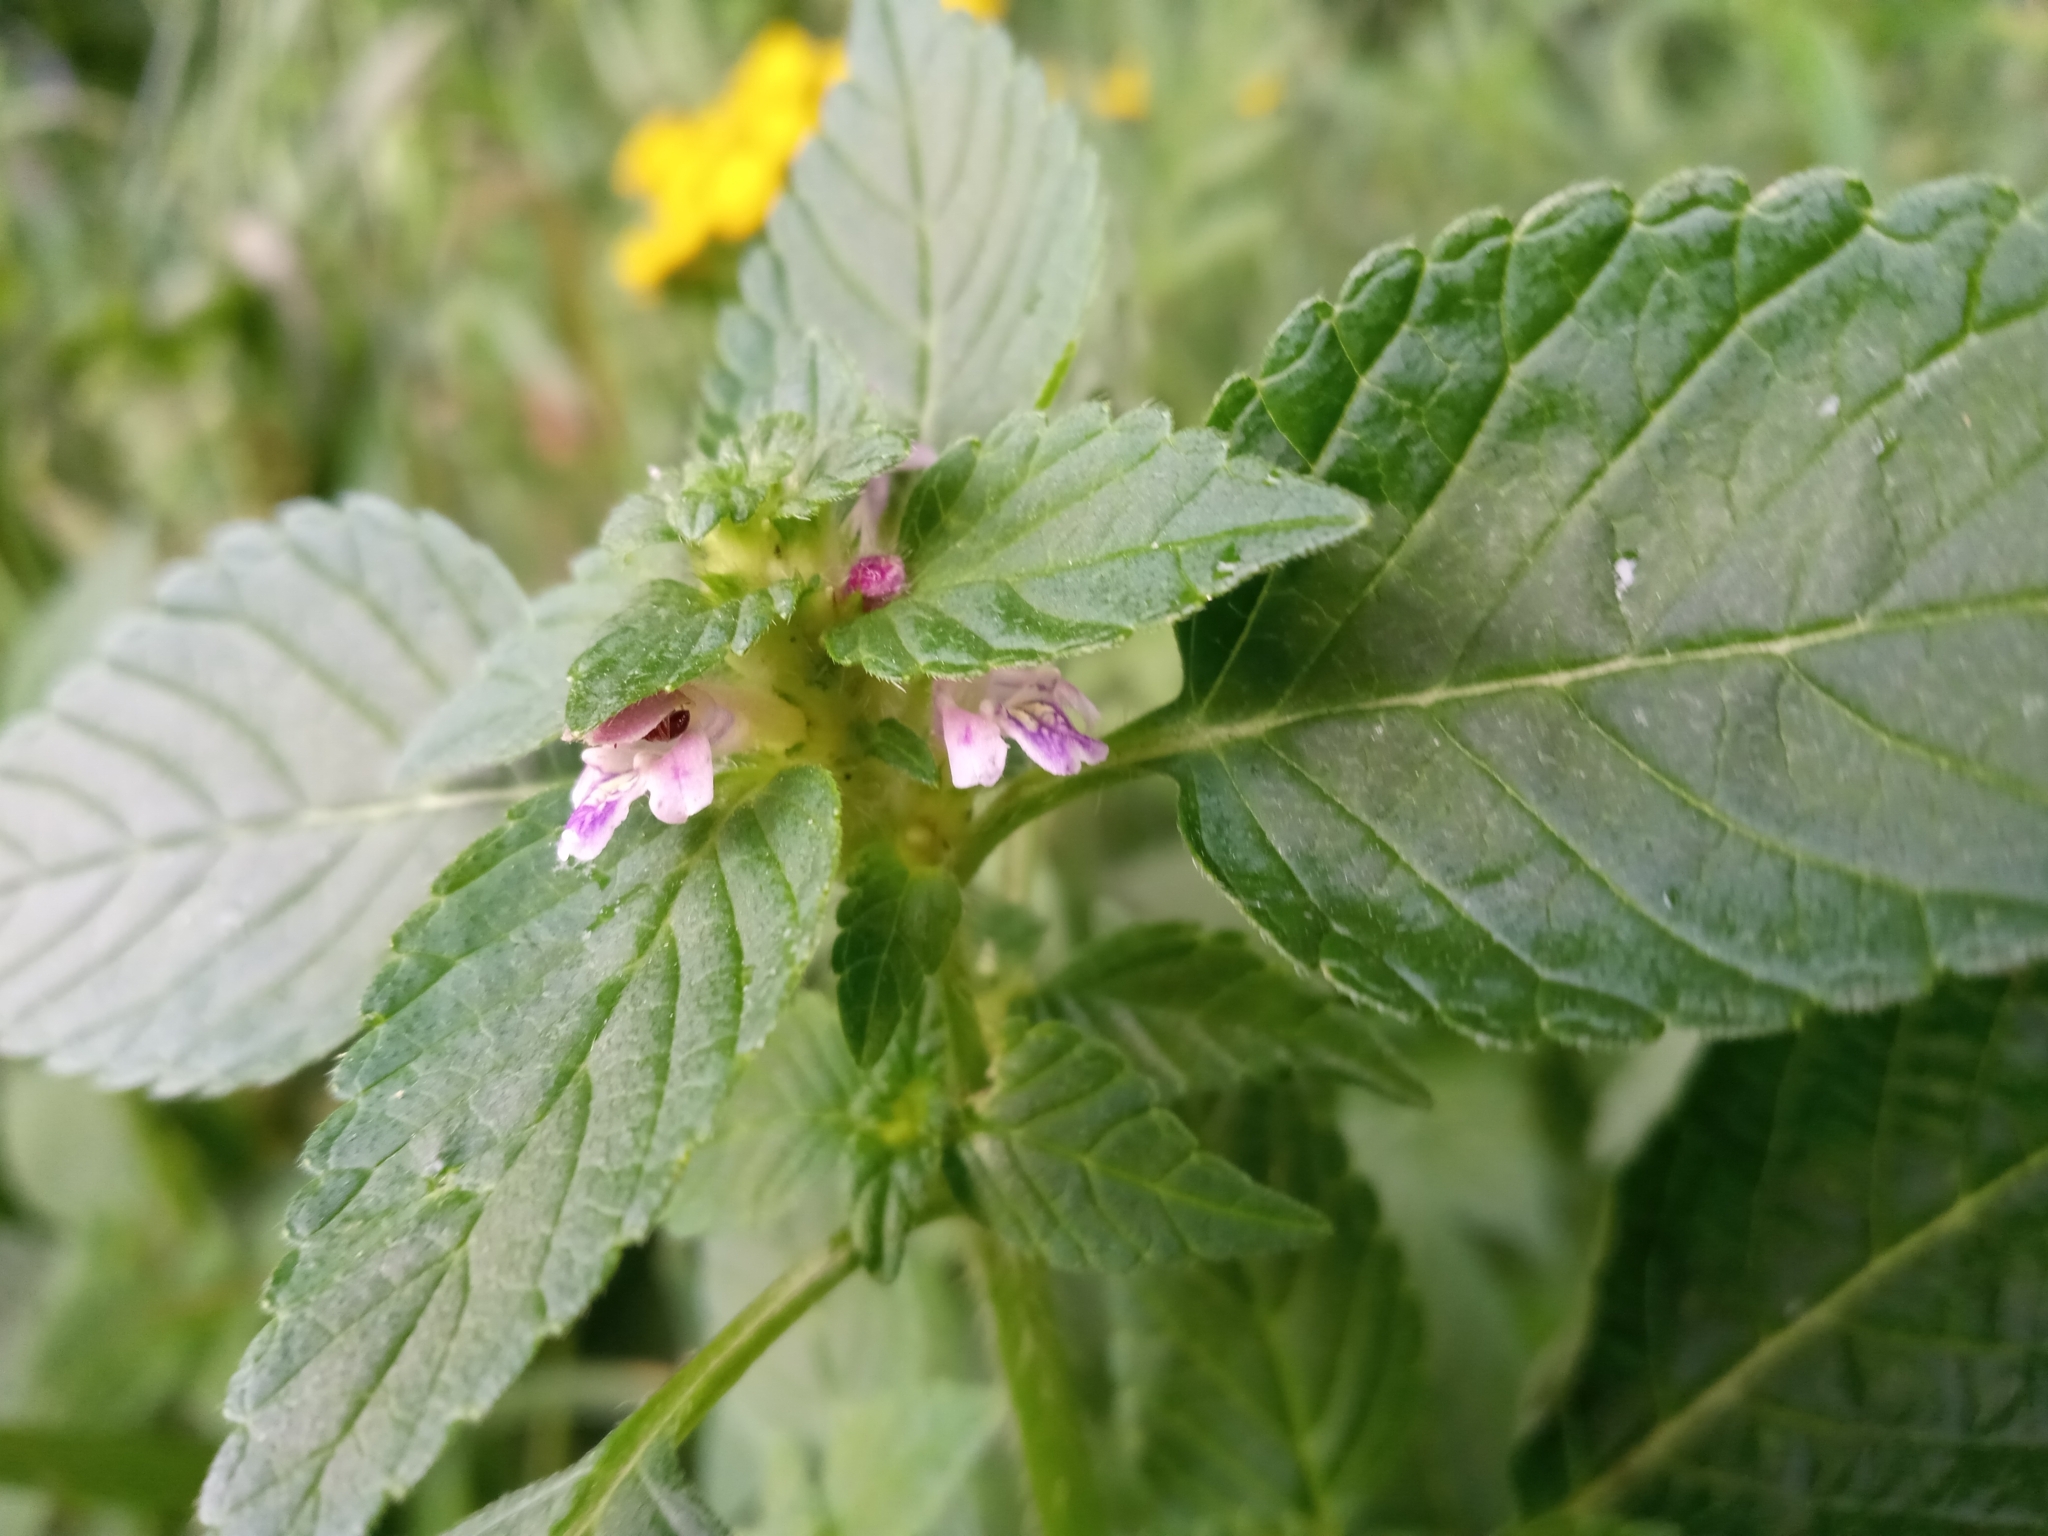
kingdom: Plantae
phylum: Tracheophyta
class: Magnoliopsida
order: Lamiales
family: Lamiaceae
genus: Galeopsis
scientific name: Galeopsis bifida
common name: Bifid hemp-nettle
